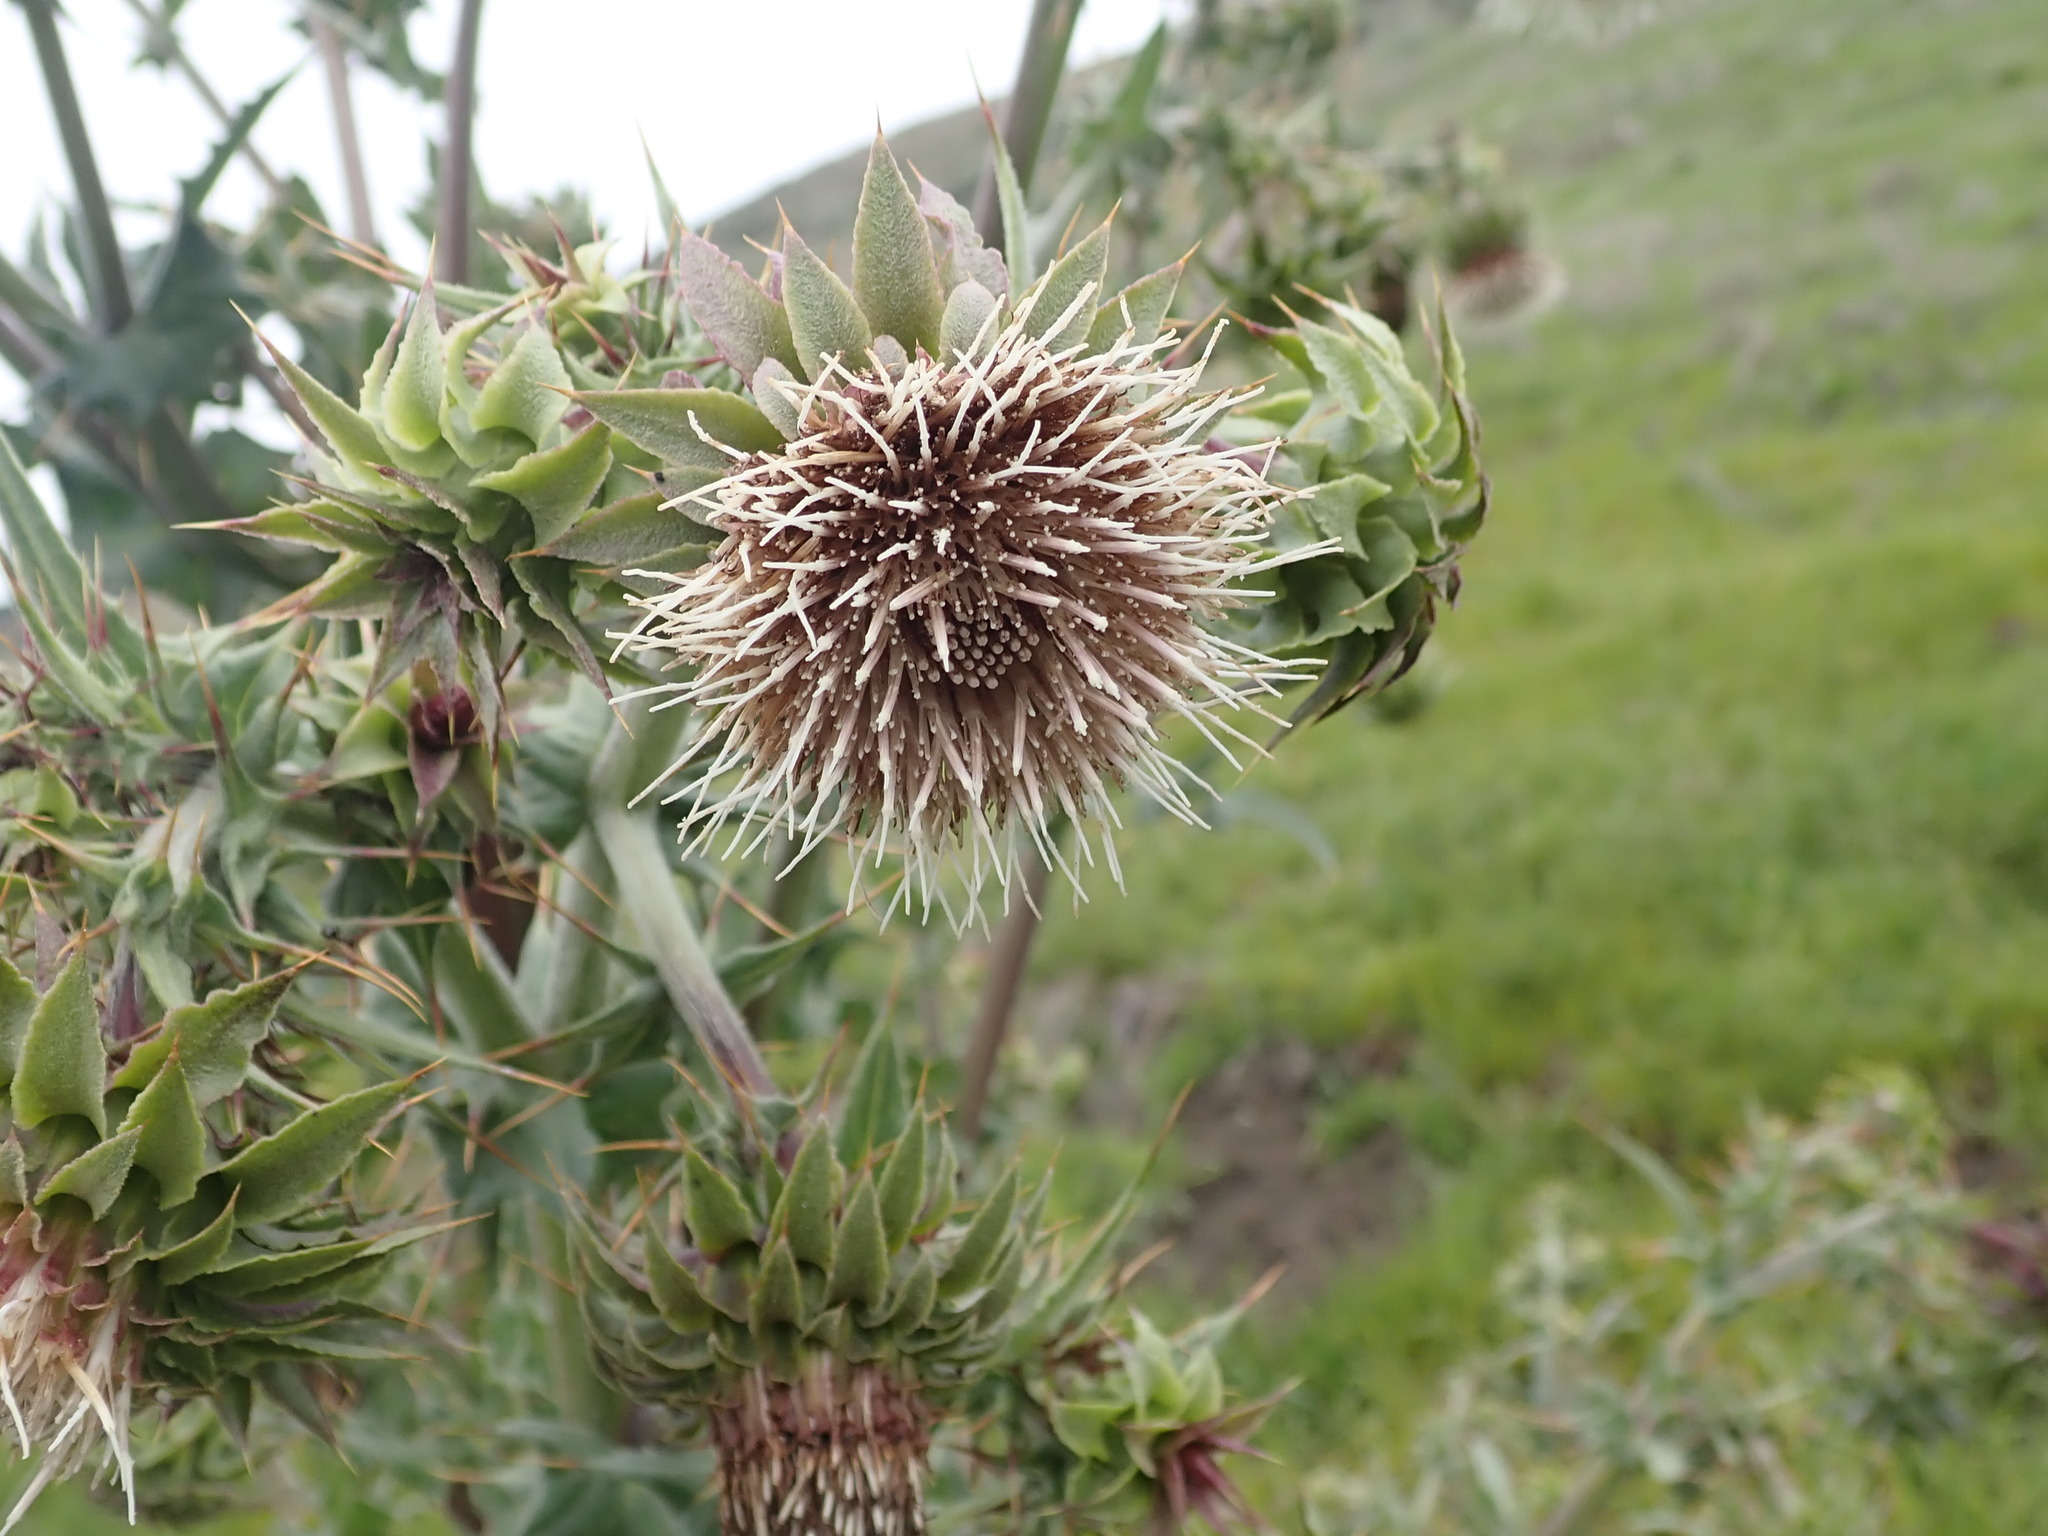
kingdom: Plantae
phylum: Tracheophyta
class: Magnoliopsida
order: Asterales
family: Asteraceae
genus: Cirsium
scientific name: Cirsium fontinale
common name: Fountain thistle
